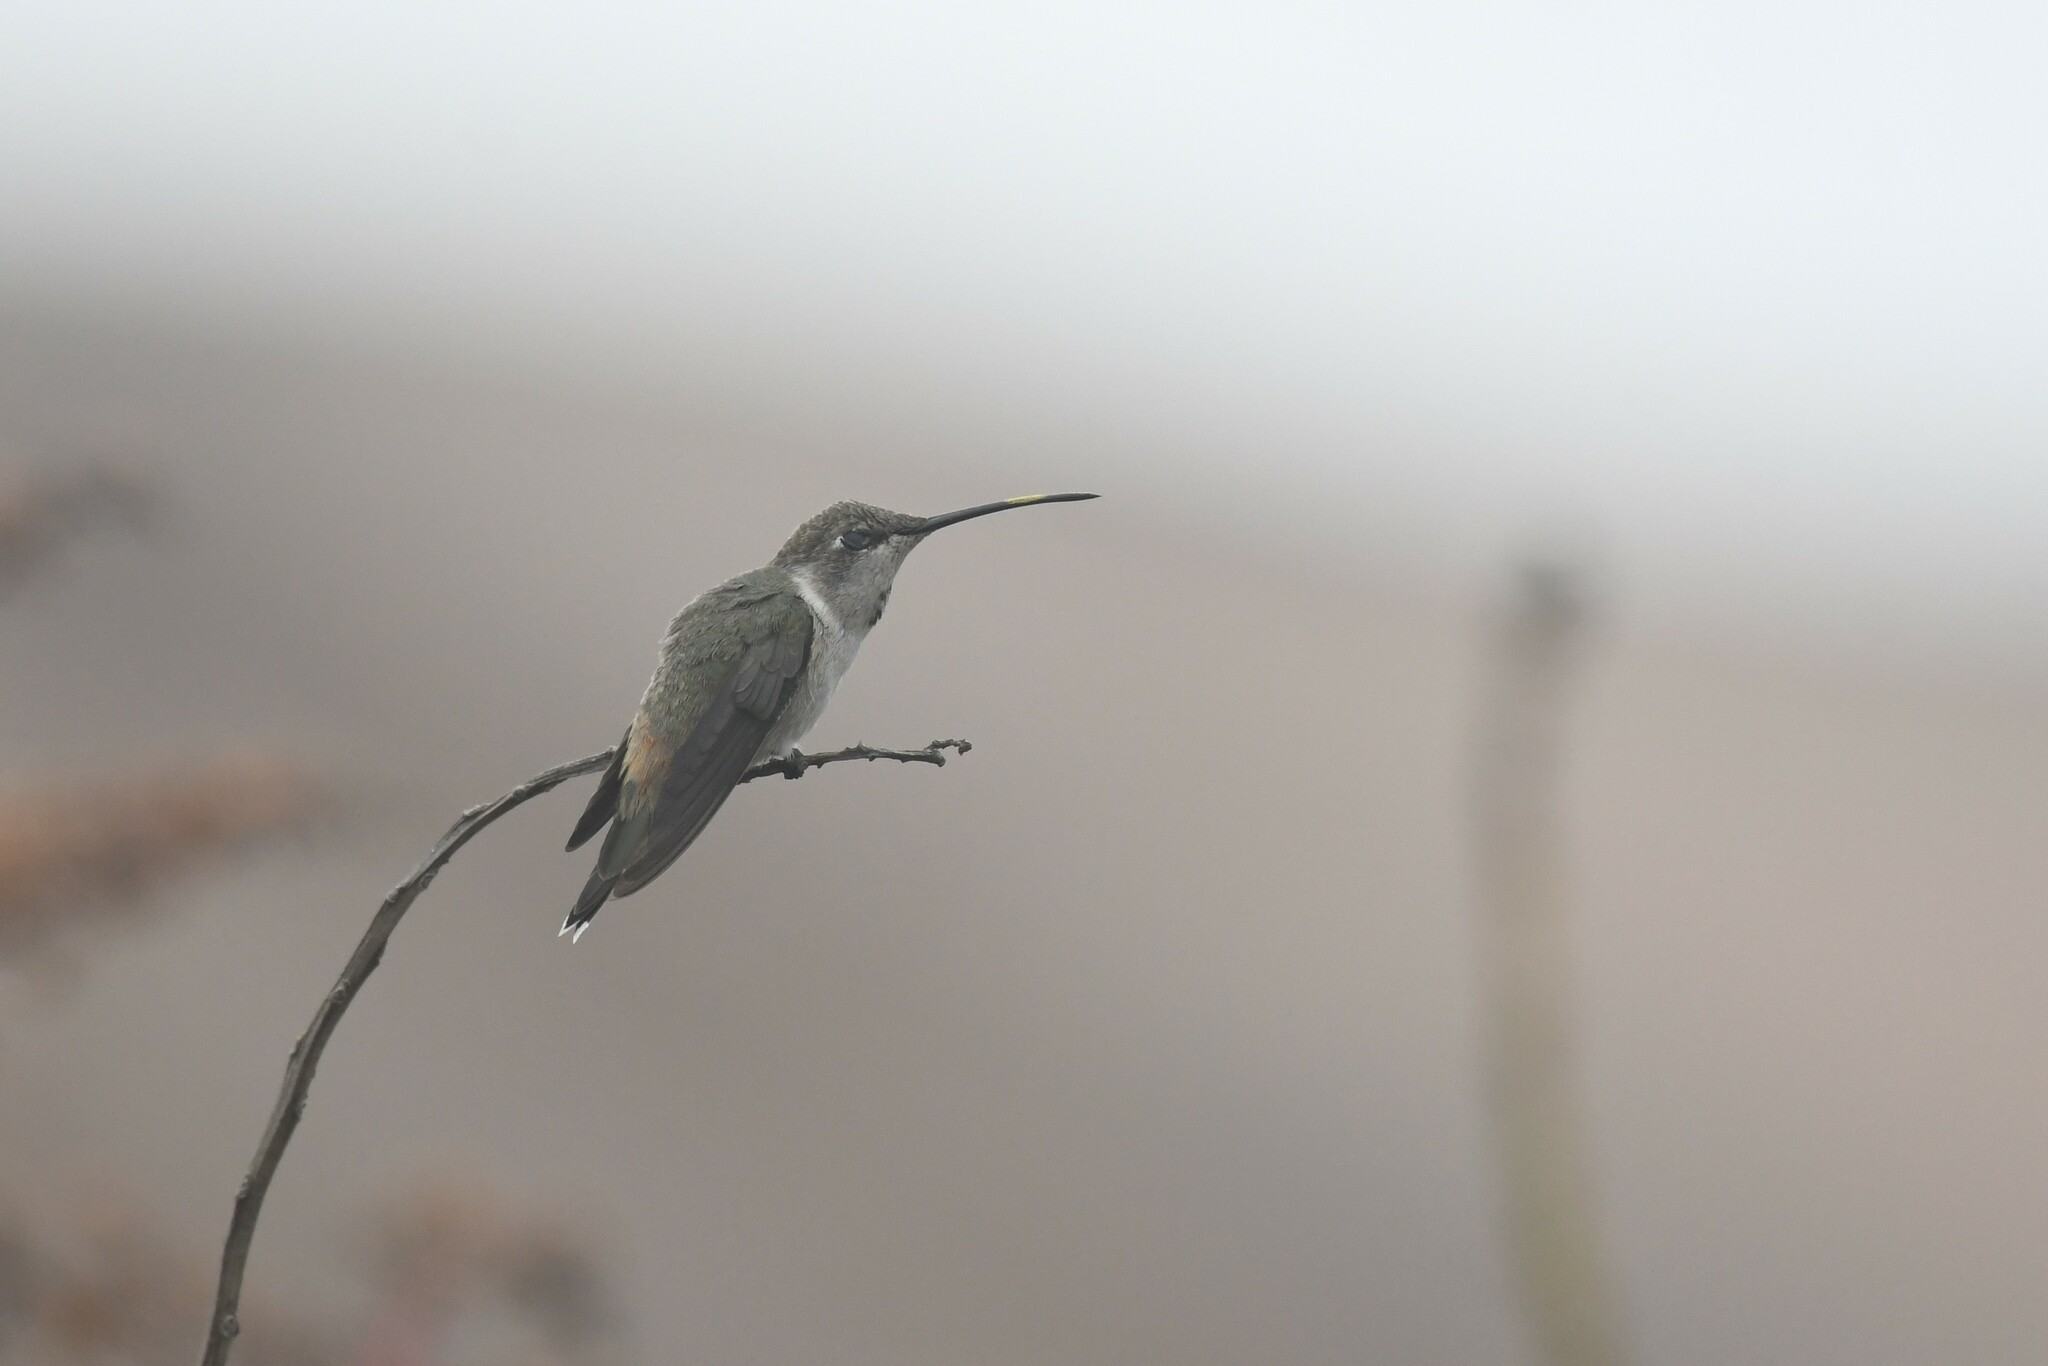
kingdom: Animalia
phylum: Chordata
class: Aves
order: Apodiformes
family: Trochilidae
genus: Rhodopis
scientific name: Rhodopis vesper
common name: Oasis hummingbird
